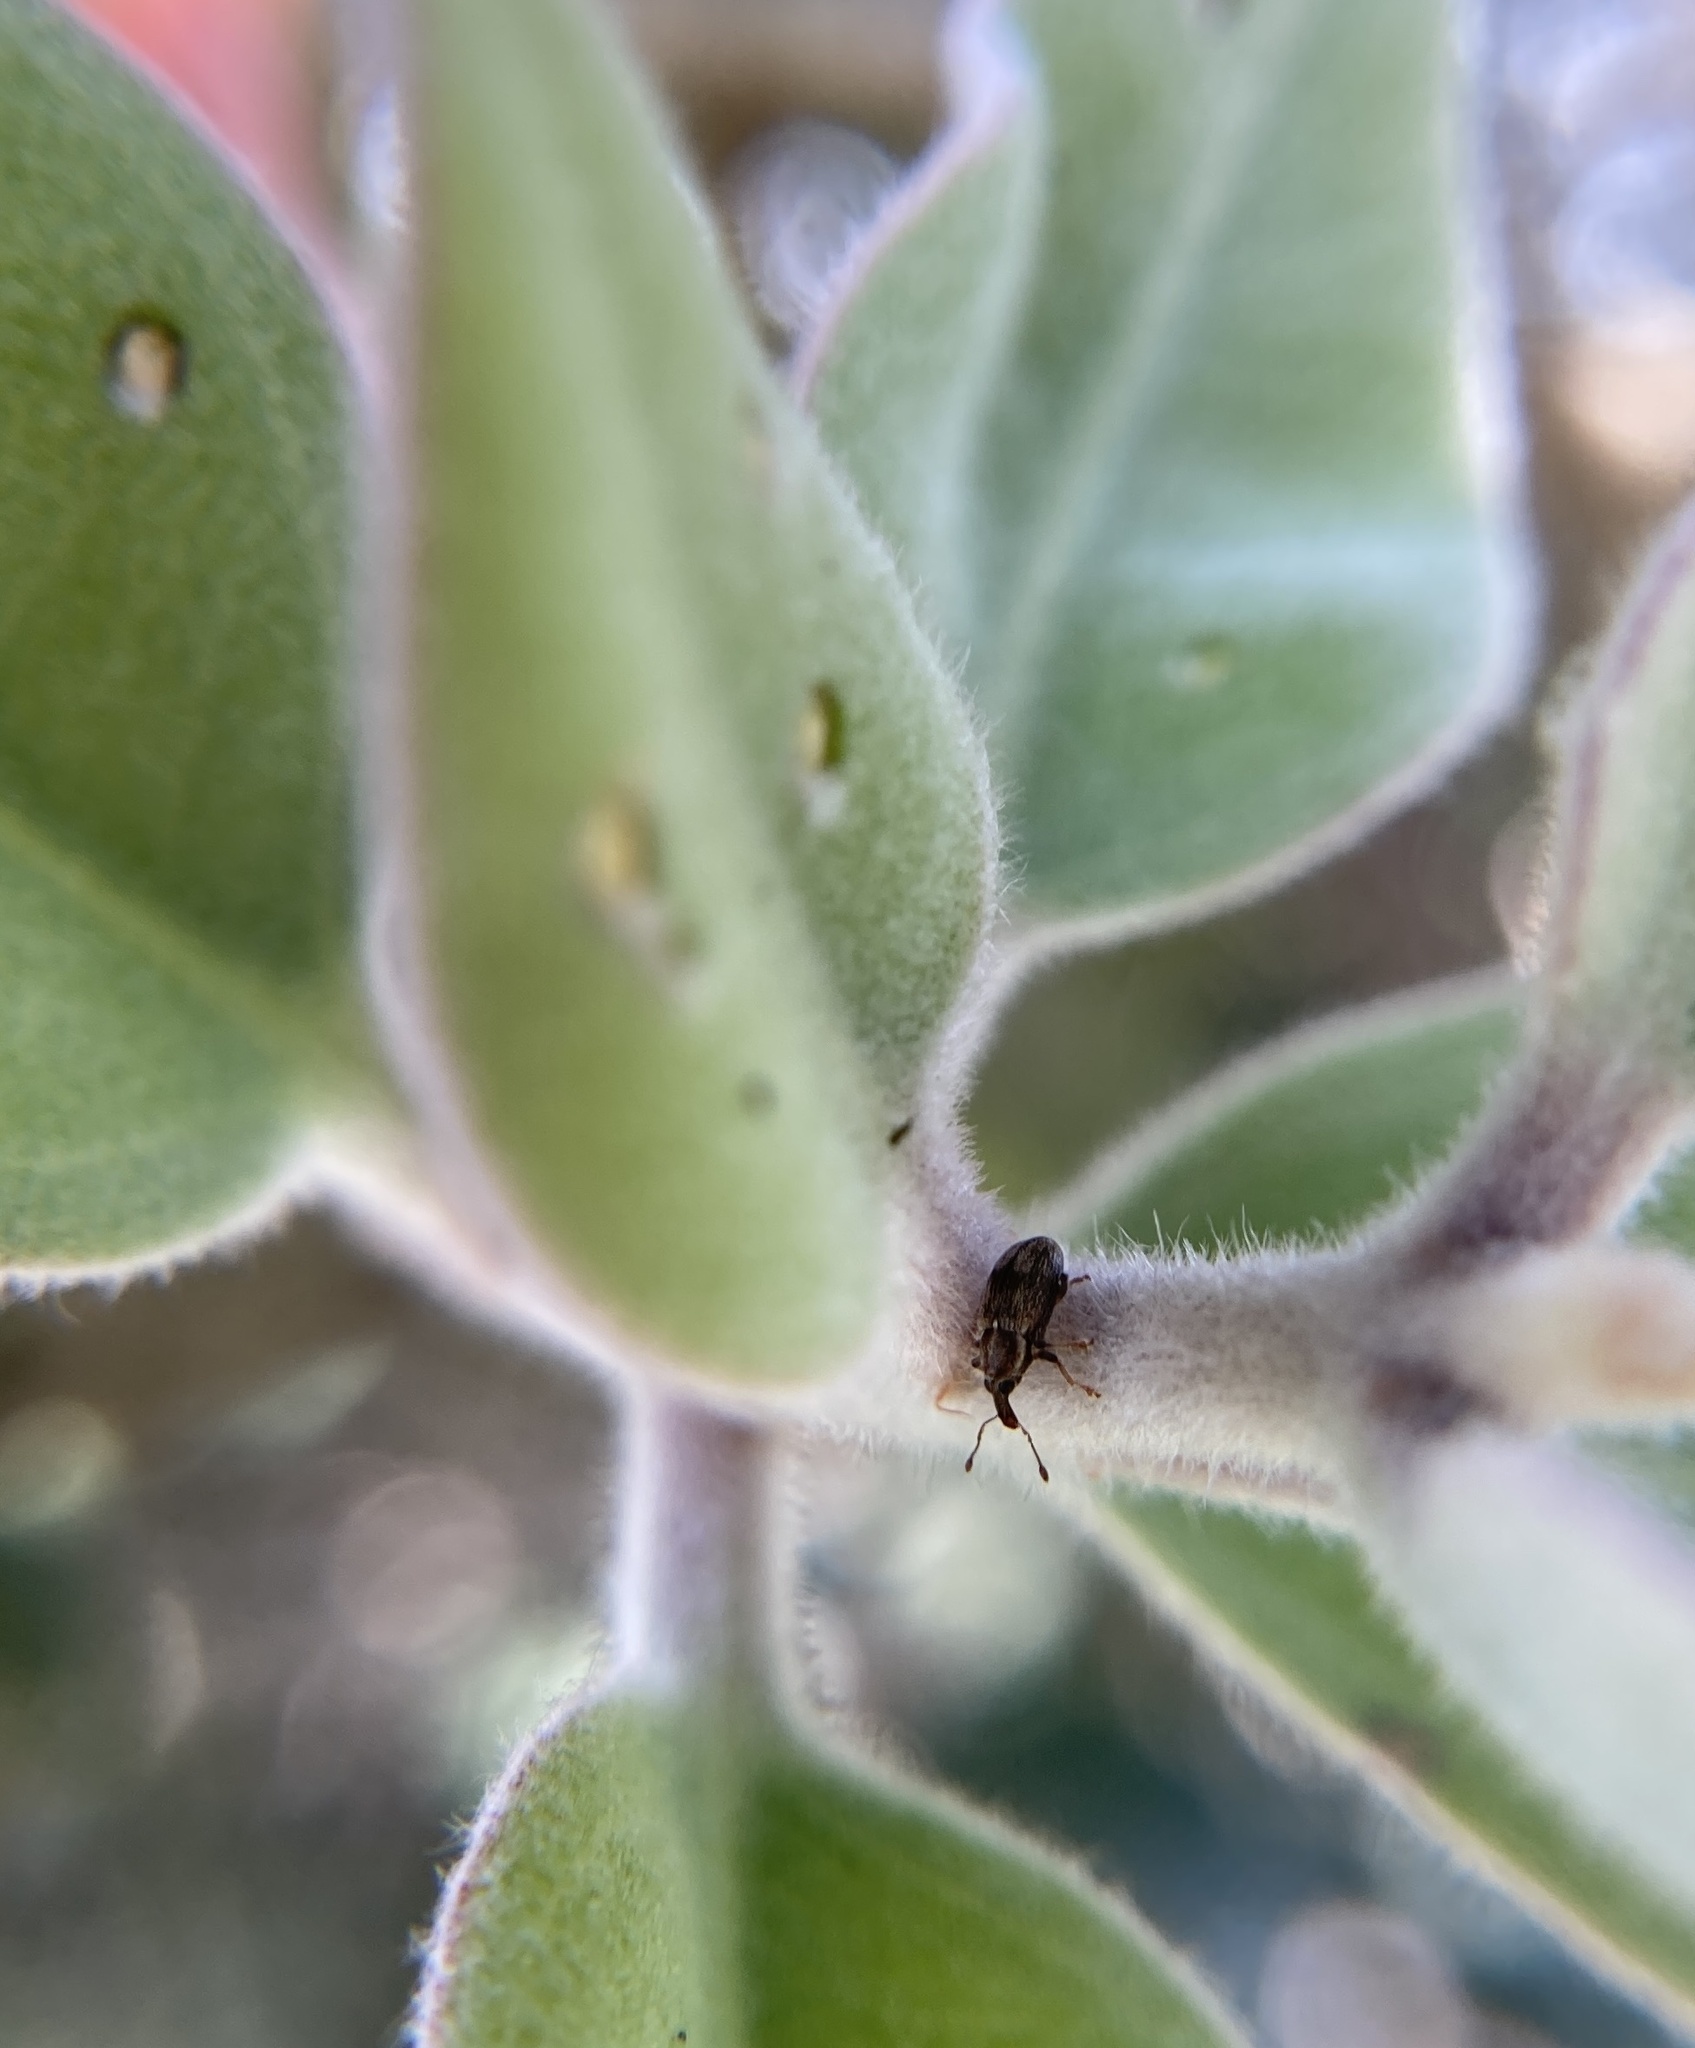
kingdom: Animalia
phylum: Arthropoda
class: Insecta
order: Coleoptera
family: Curculionidae
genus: Neomycta
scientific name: Neomycta rubida
